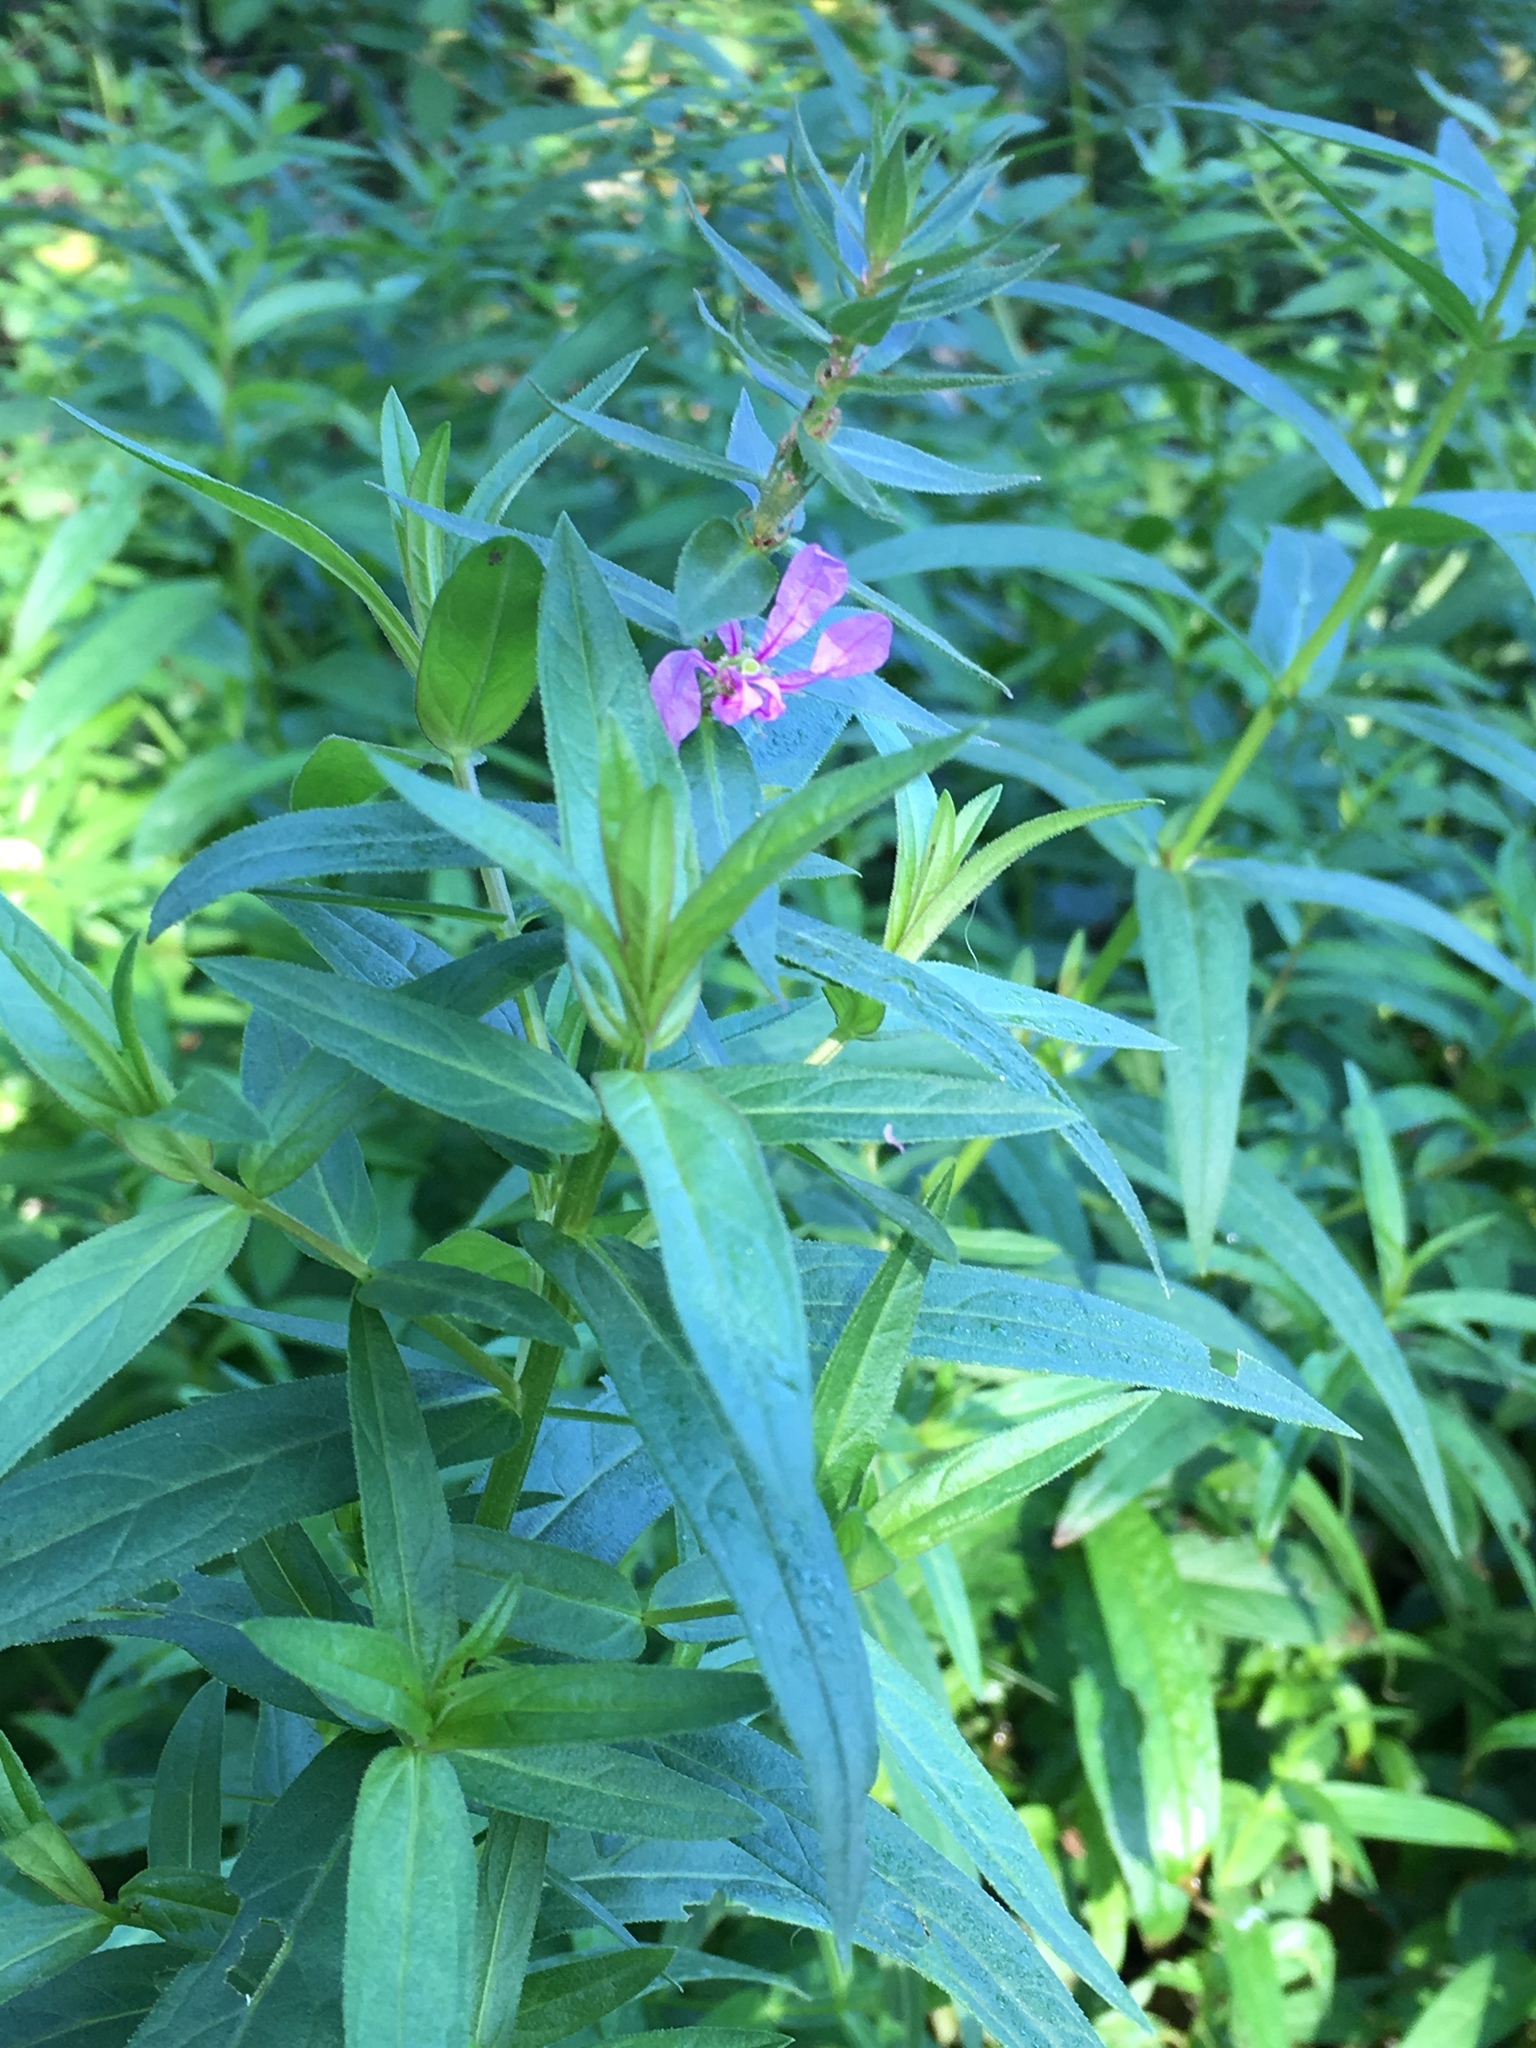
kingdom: Plantae
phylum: Tracheophyta
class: Magnoliopsida
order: Myrtales
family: Lythraceae
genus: Lythrum
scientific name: Lythrum salicaria
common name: Purple loosestrife
